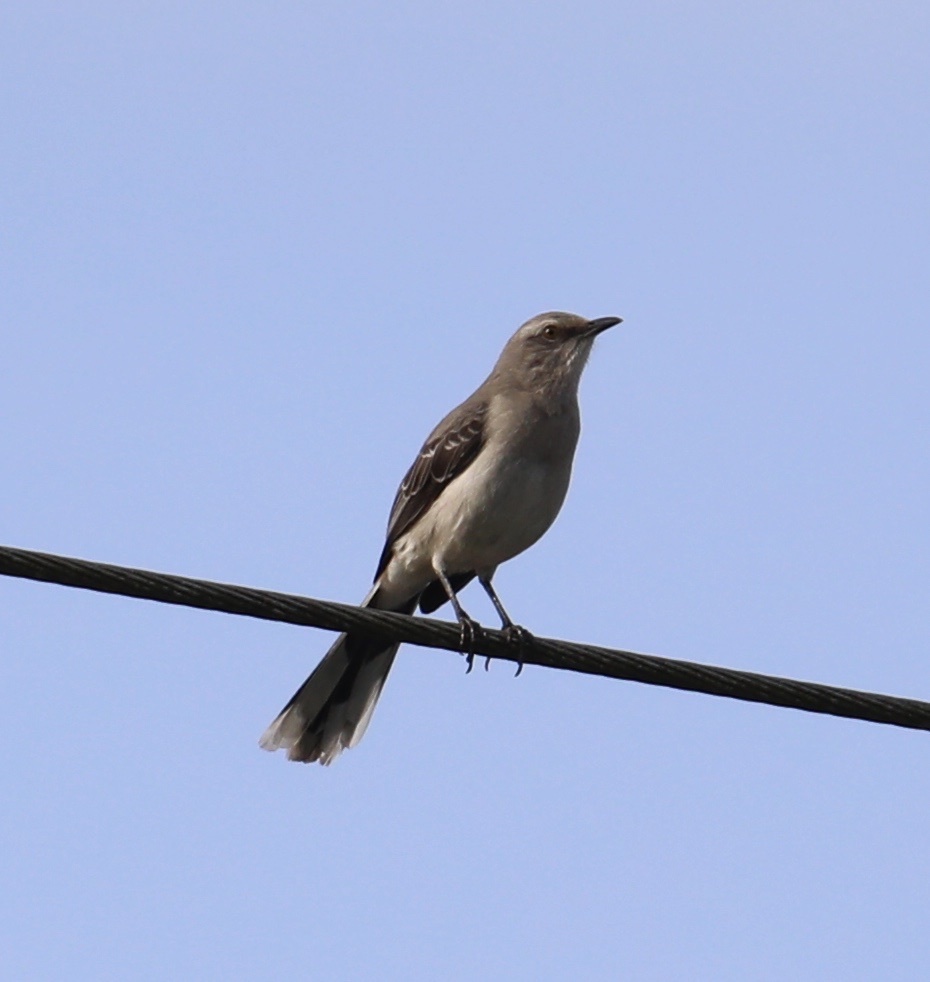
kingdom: Animalia
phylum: Chordata
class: Aves
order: Passeriformes
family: Mimidae
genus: Mimus
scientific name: Mimus gilvus
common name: Tropical mockingbird
